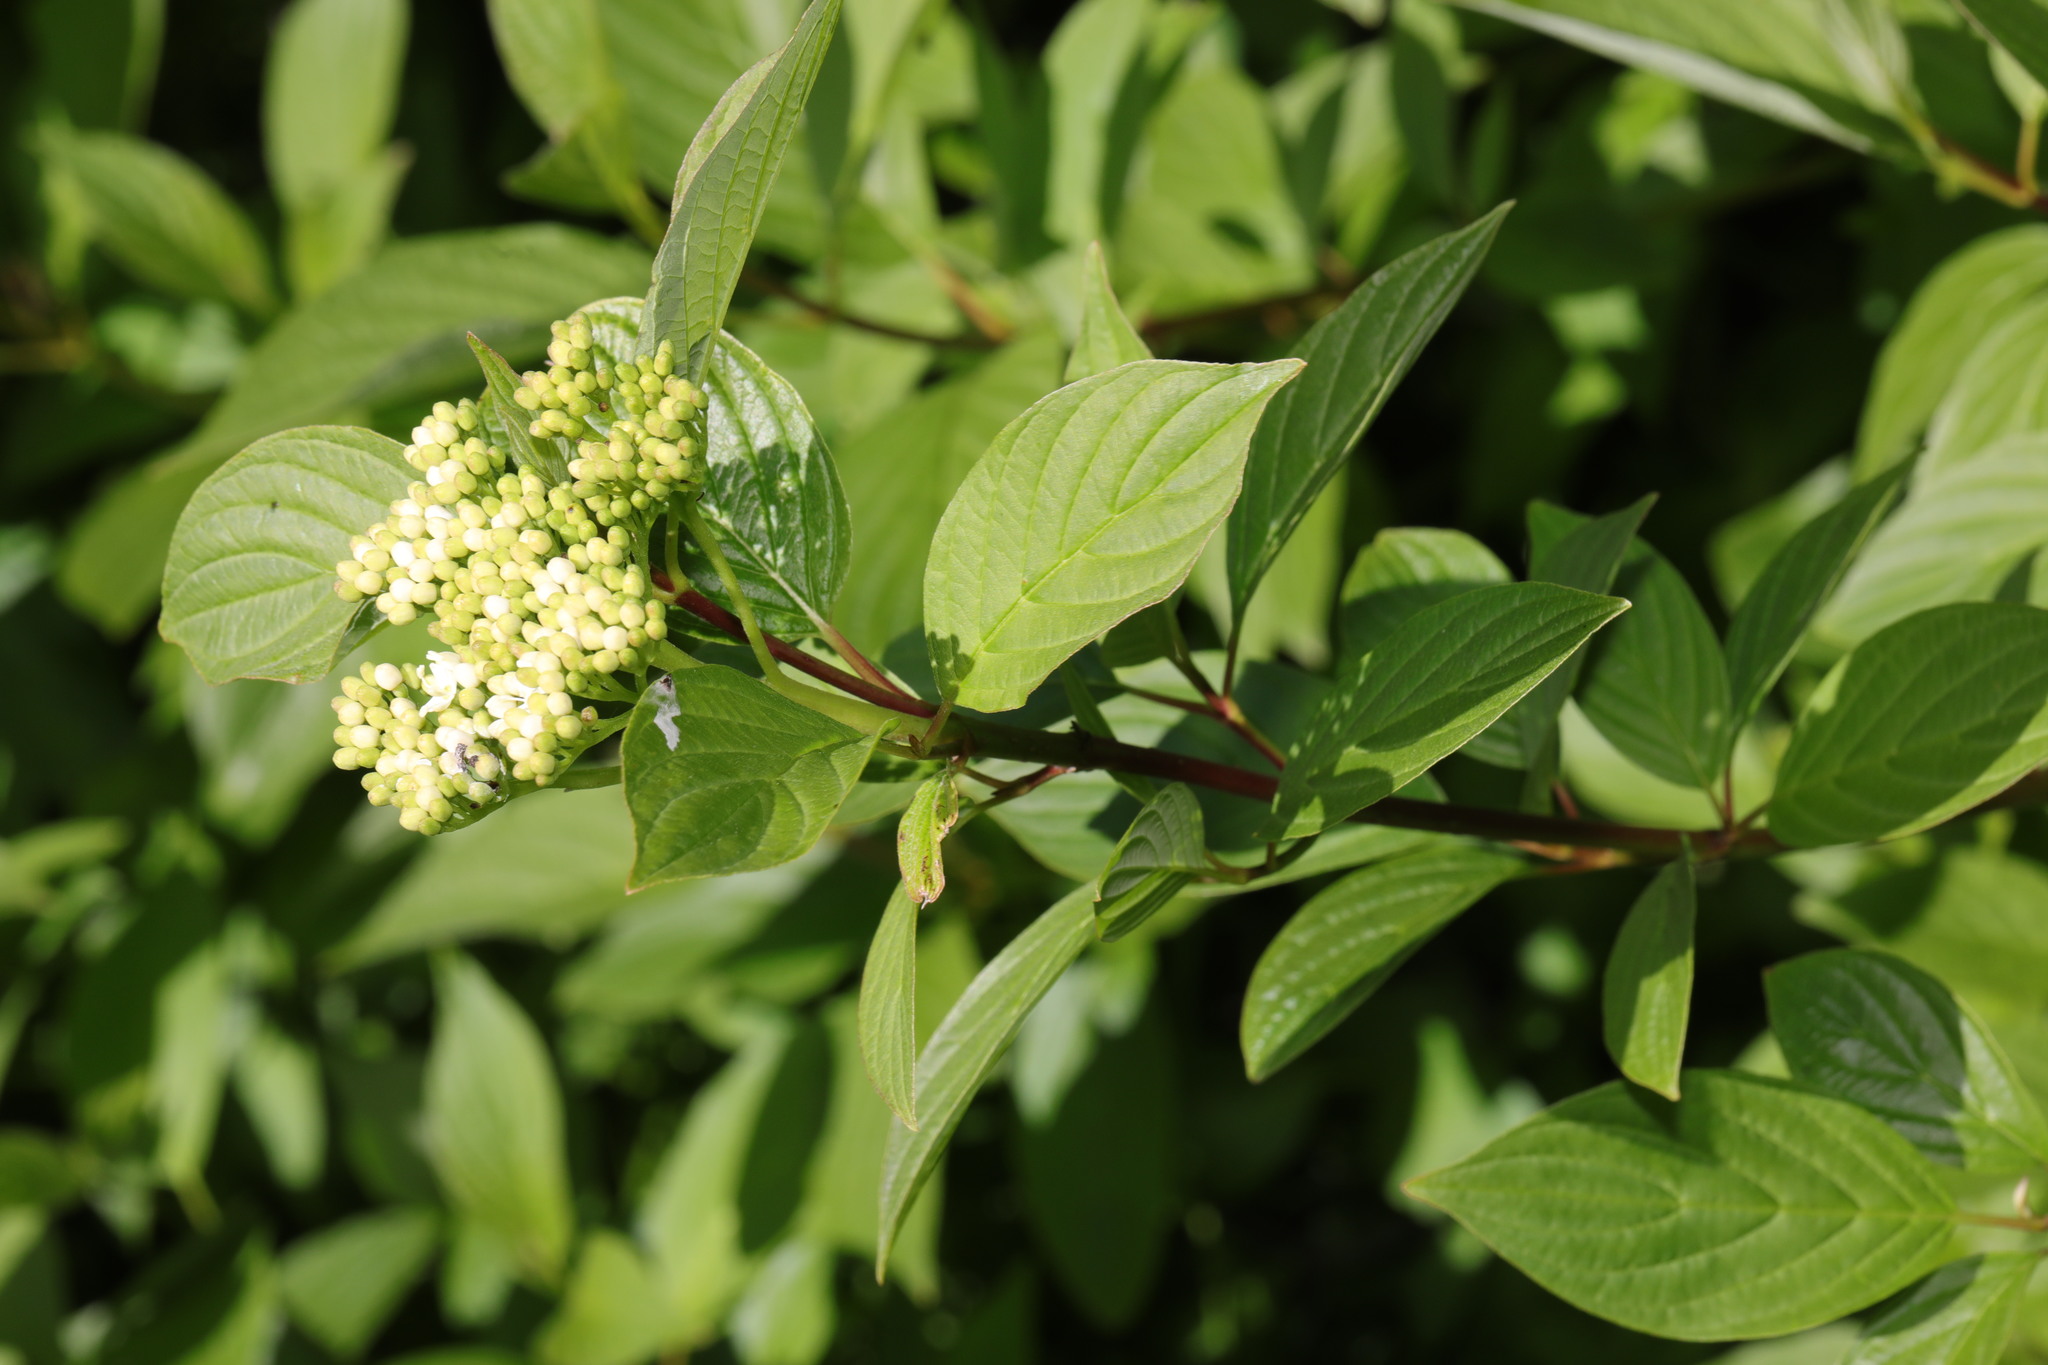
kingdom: Plantae
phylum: Tracheophyta
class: Magnoliopsida
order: Cornales
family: Cornaceae
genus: Cornus
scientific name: Cornus sericea
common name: Red-osier dogwood
